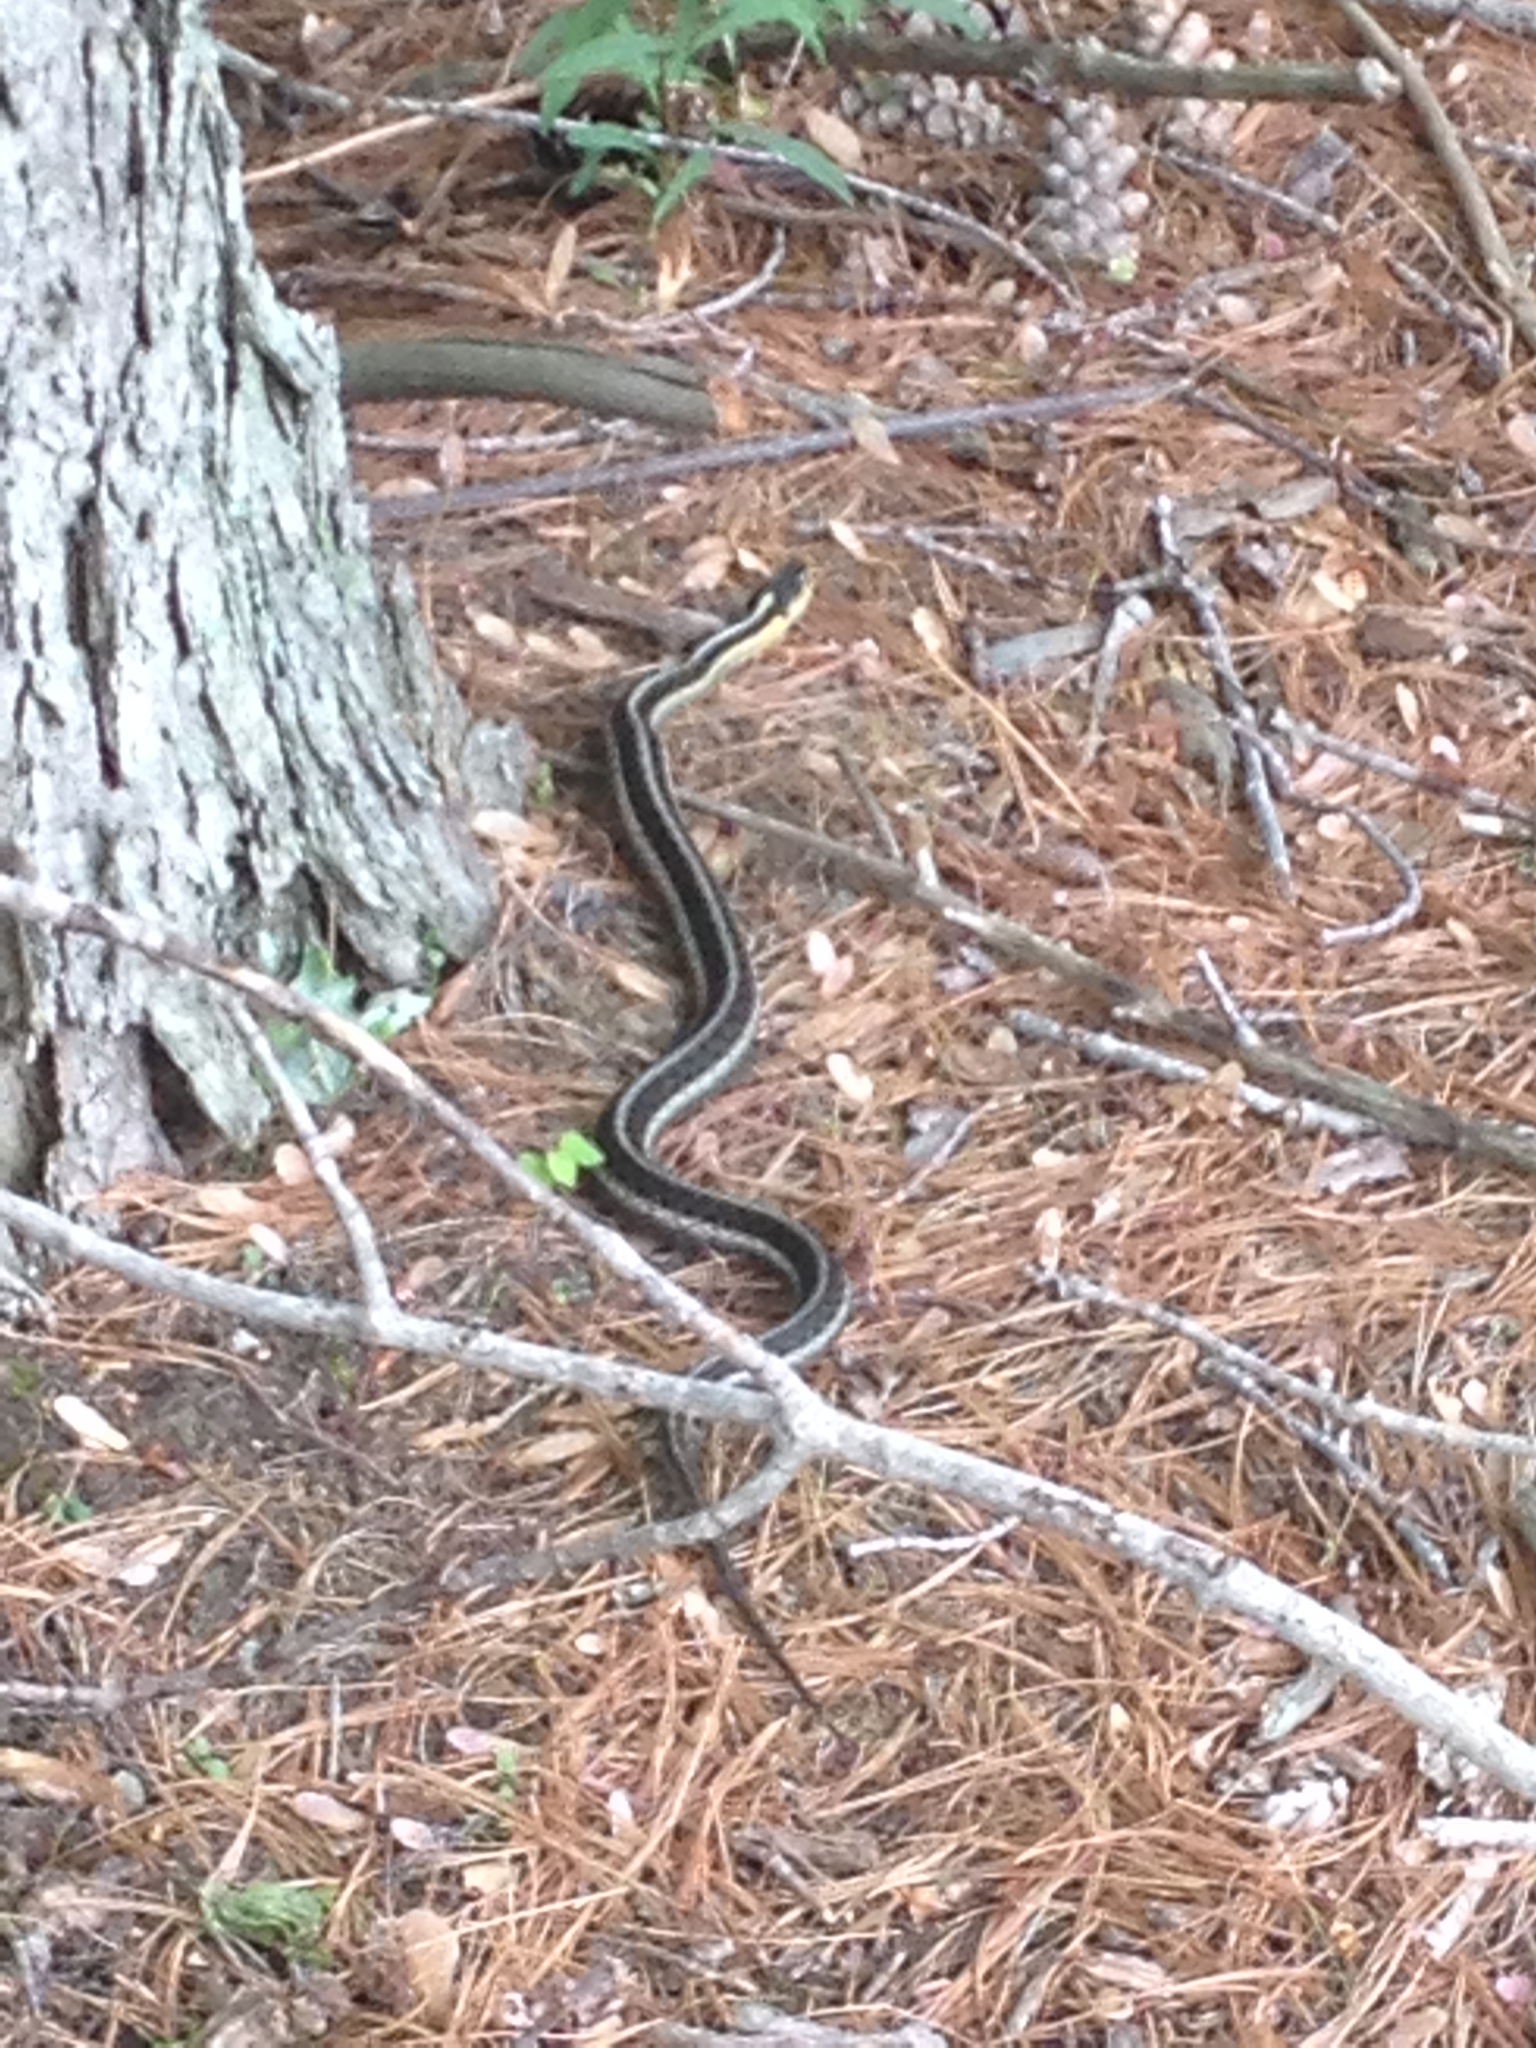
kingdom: Animalia
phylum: Chordata
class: Squamata
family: Colubridae
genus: Thamnophis
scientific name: Thamnophis sirtalis
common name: Common garter snake
